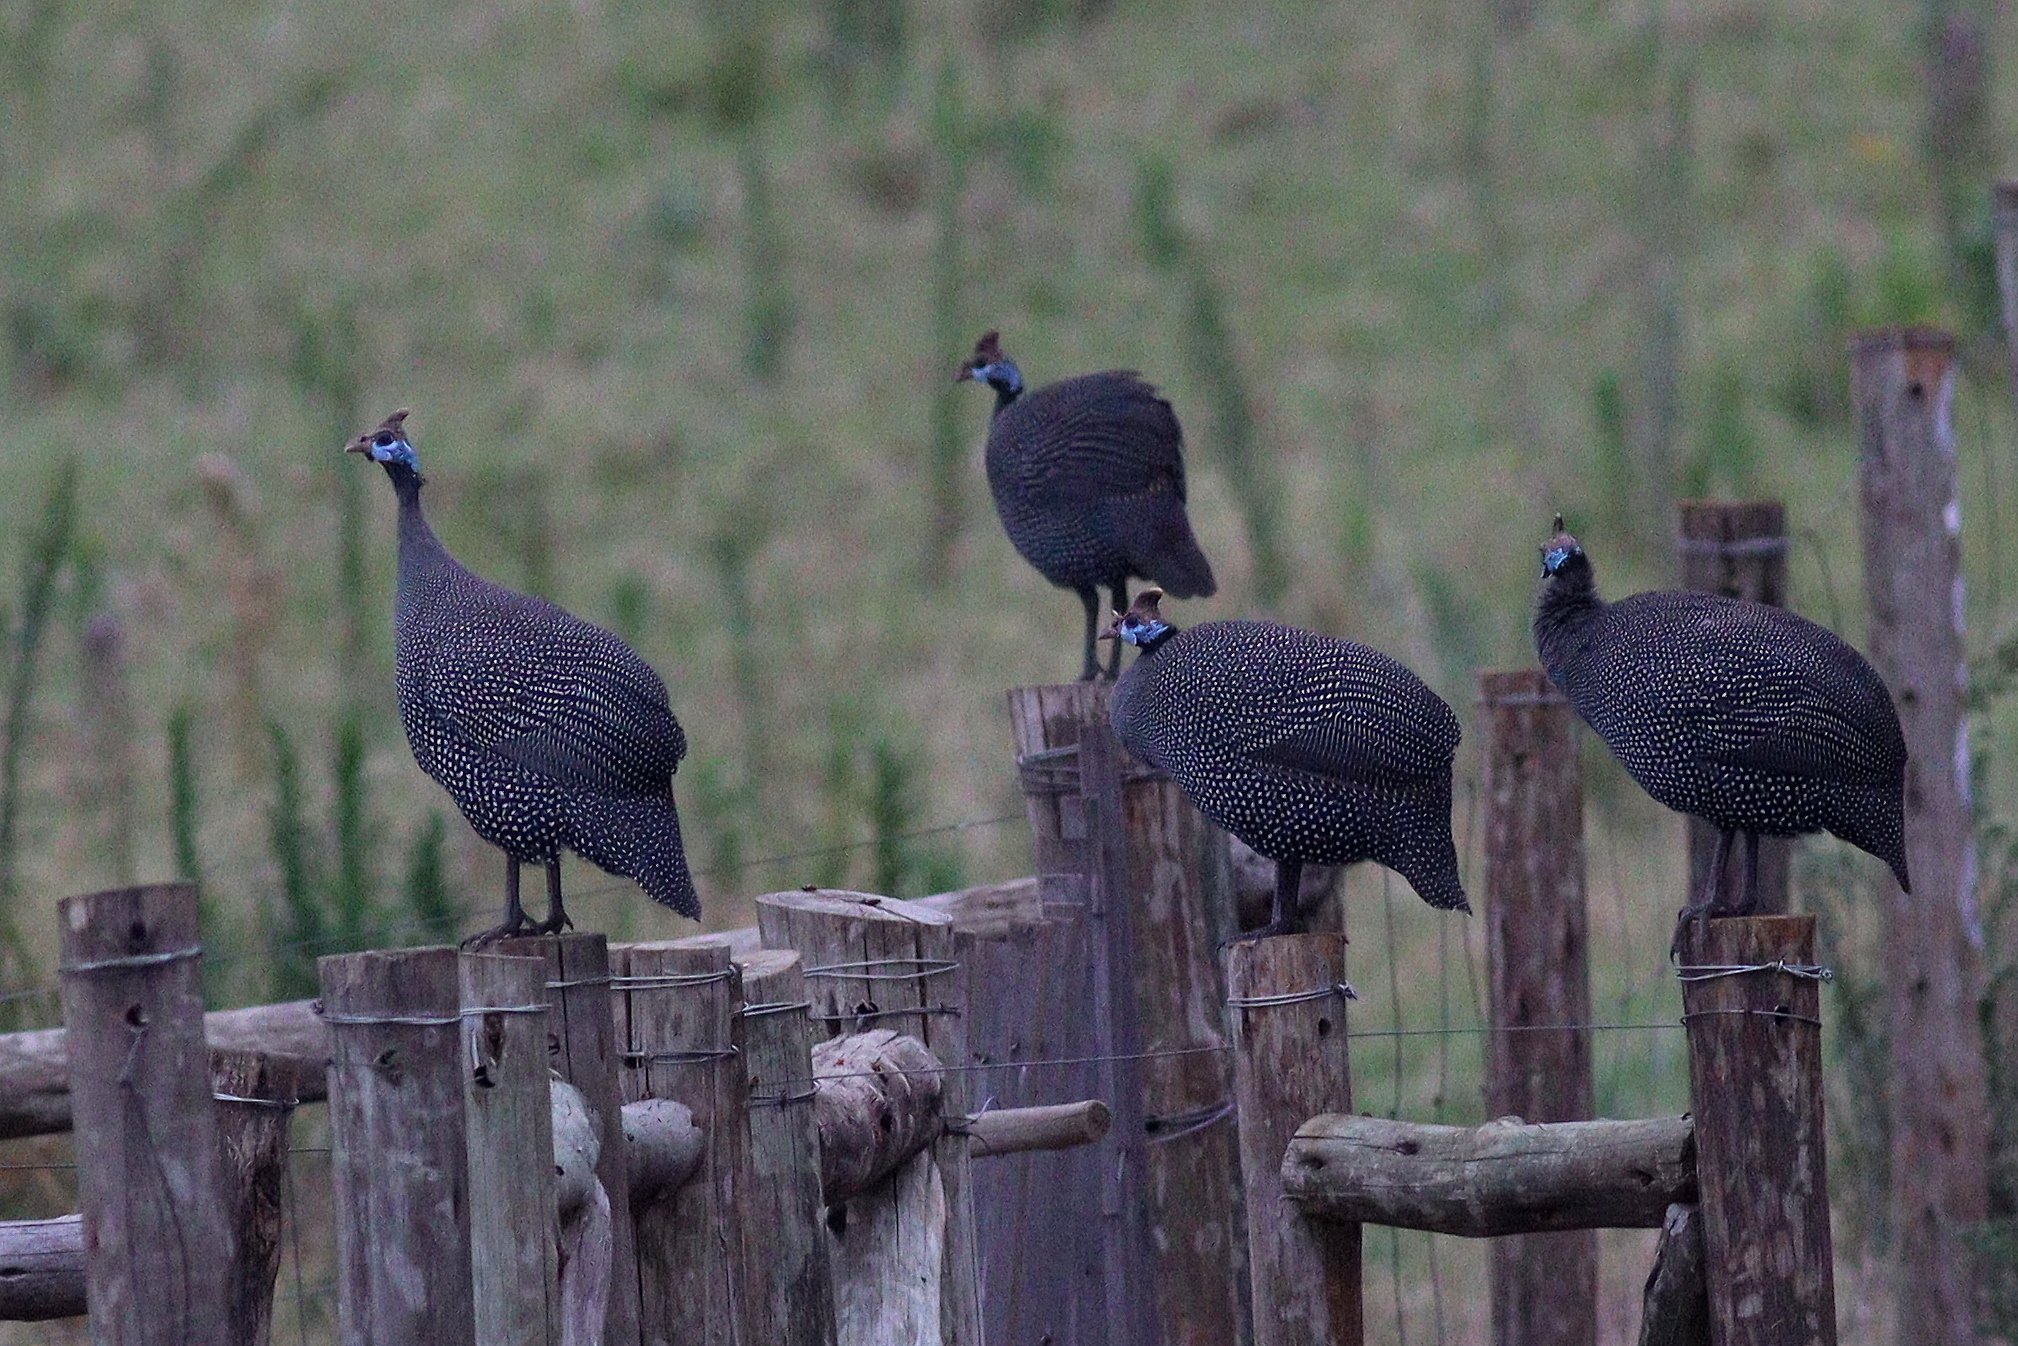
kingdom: Animalia
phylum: Chordata
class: Aves
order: Galliformes
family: Numididae
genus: Numida
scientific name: Numida meleagris
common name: Helmeted guineafowl
